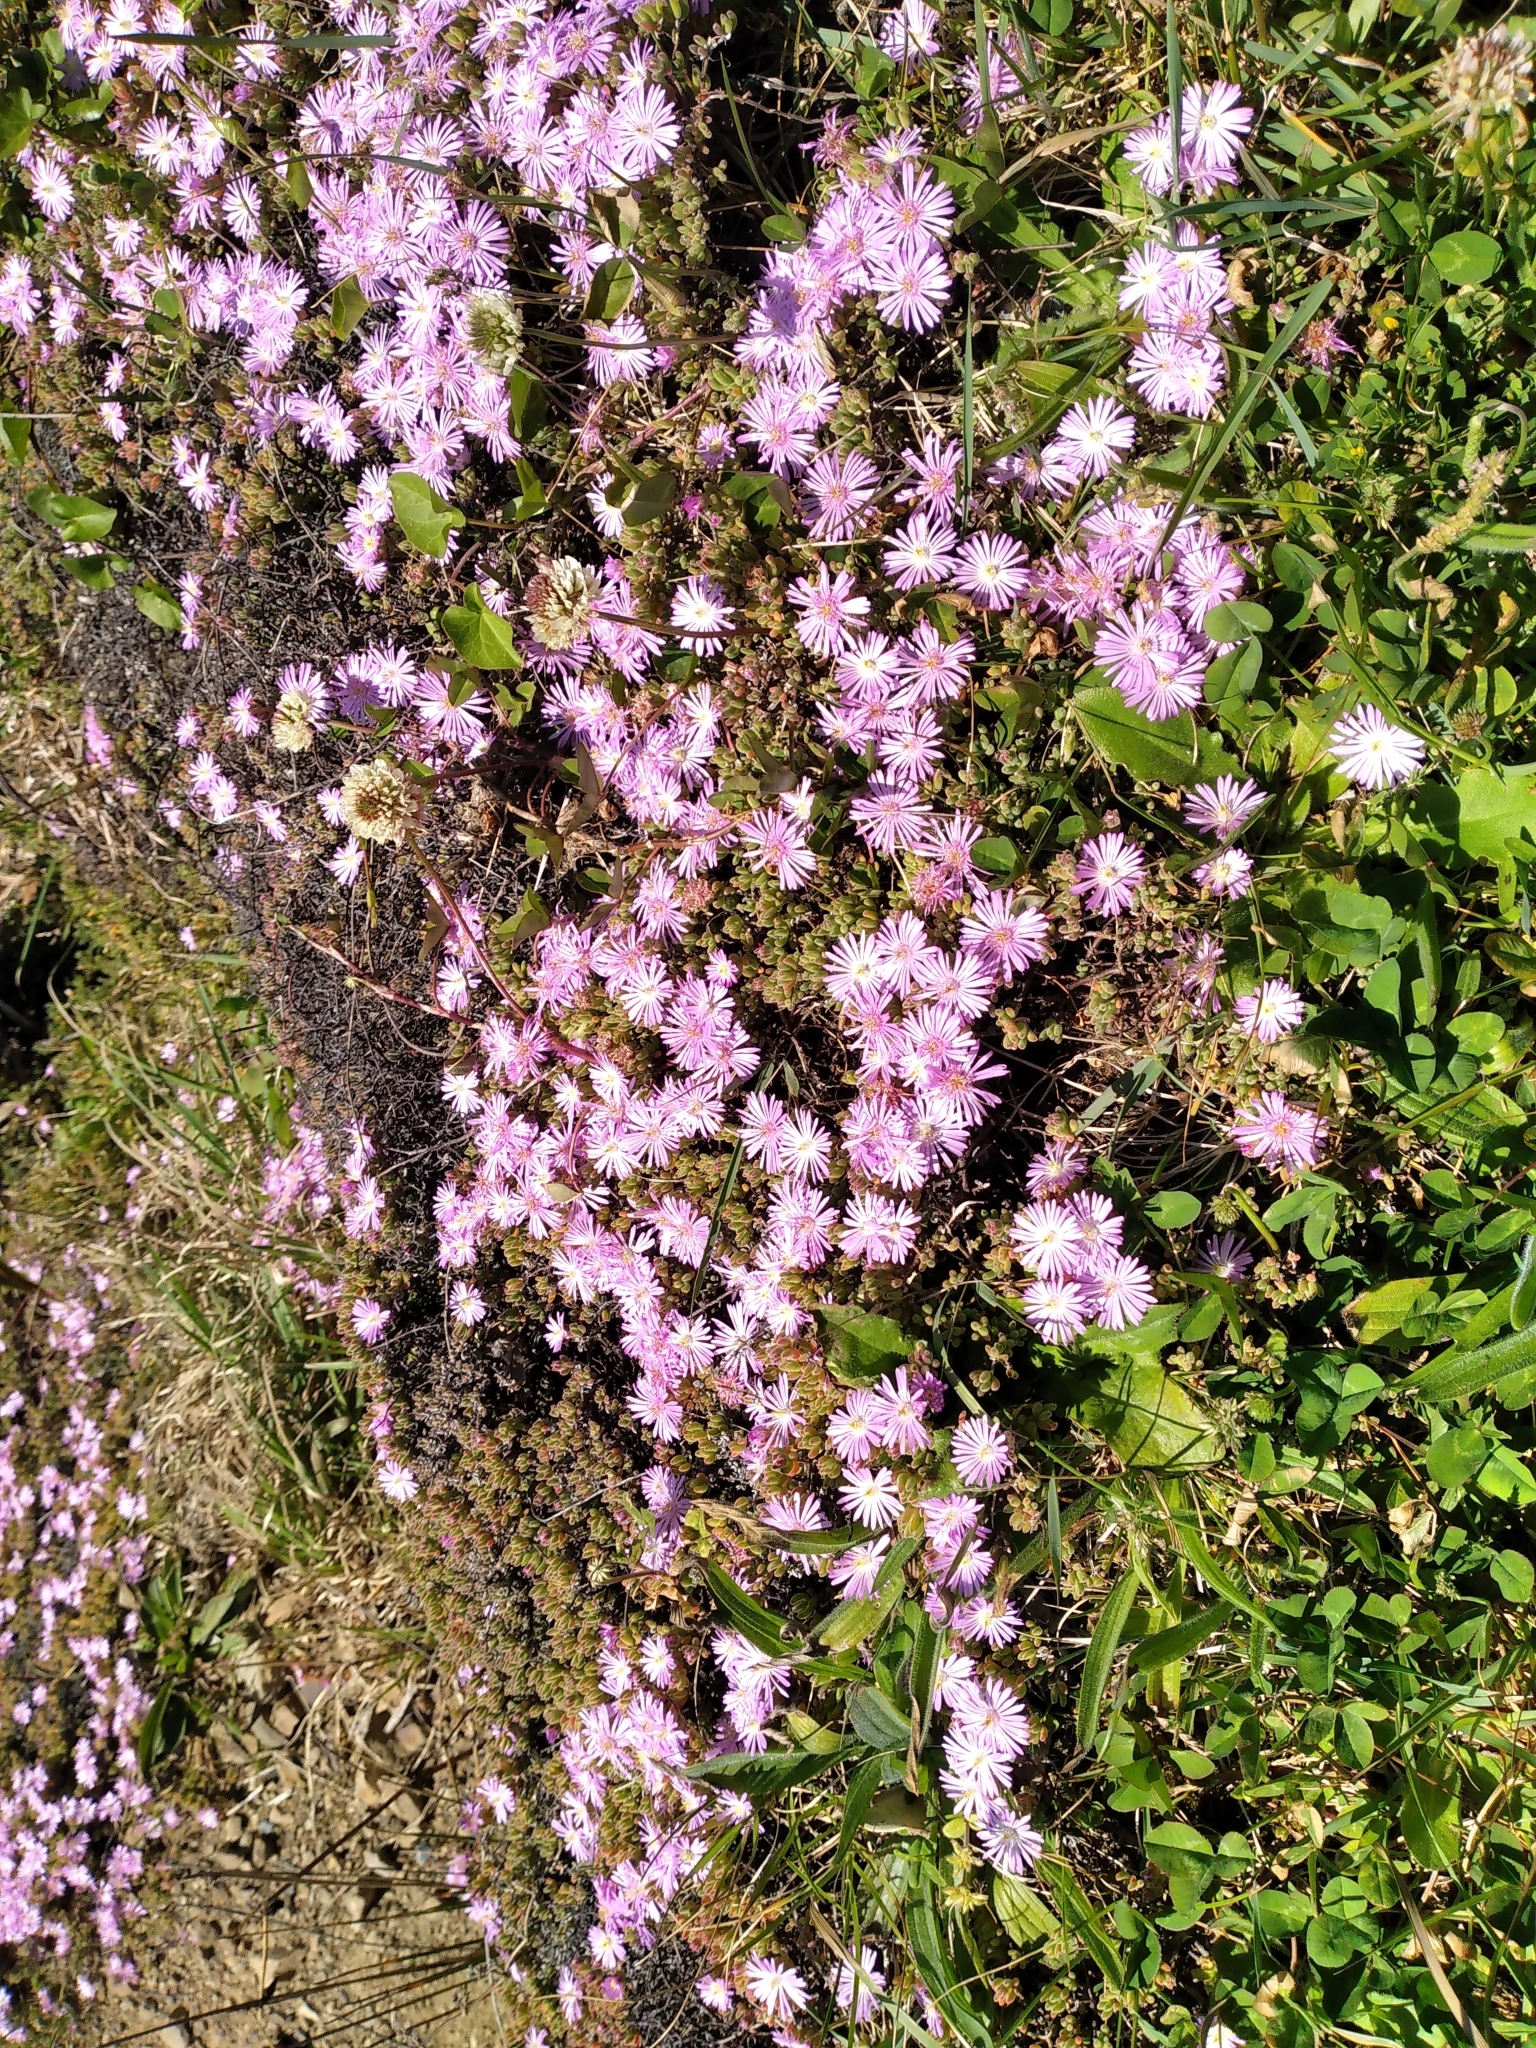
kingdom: Plantae
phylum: Tracheophyta
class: Magnoliopsida
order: Caryophyllales
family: Aizoaceae
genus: Drosanthemum
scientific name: Drosanthemum floribundum
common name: Pale dewplant
